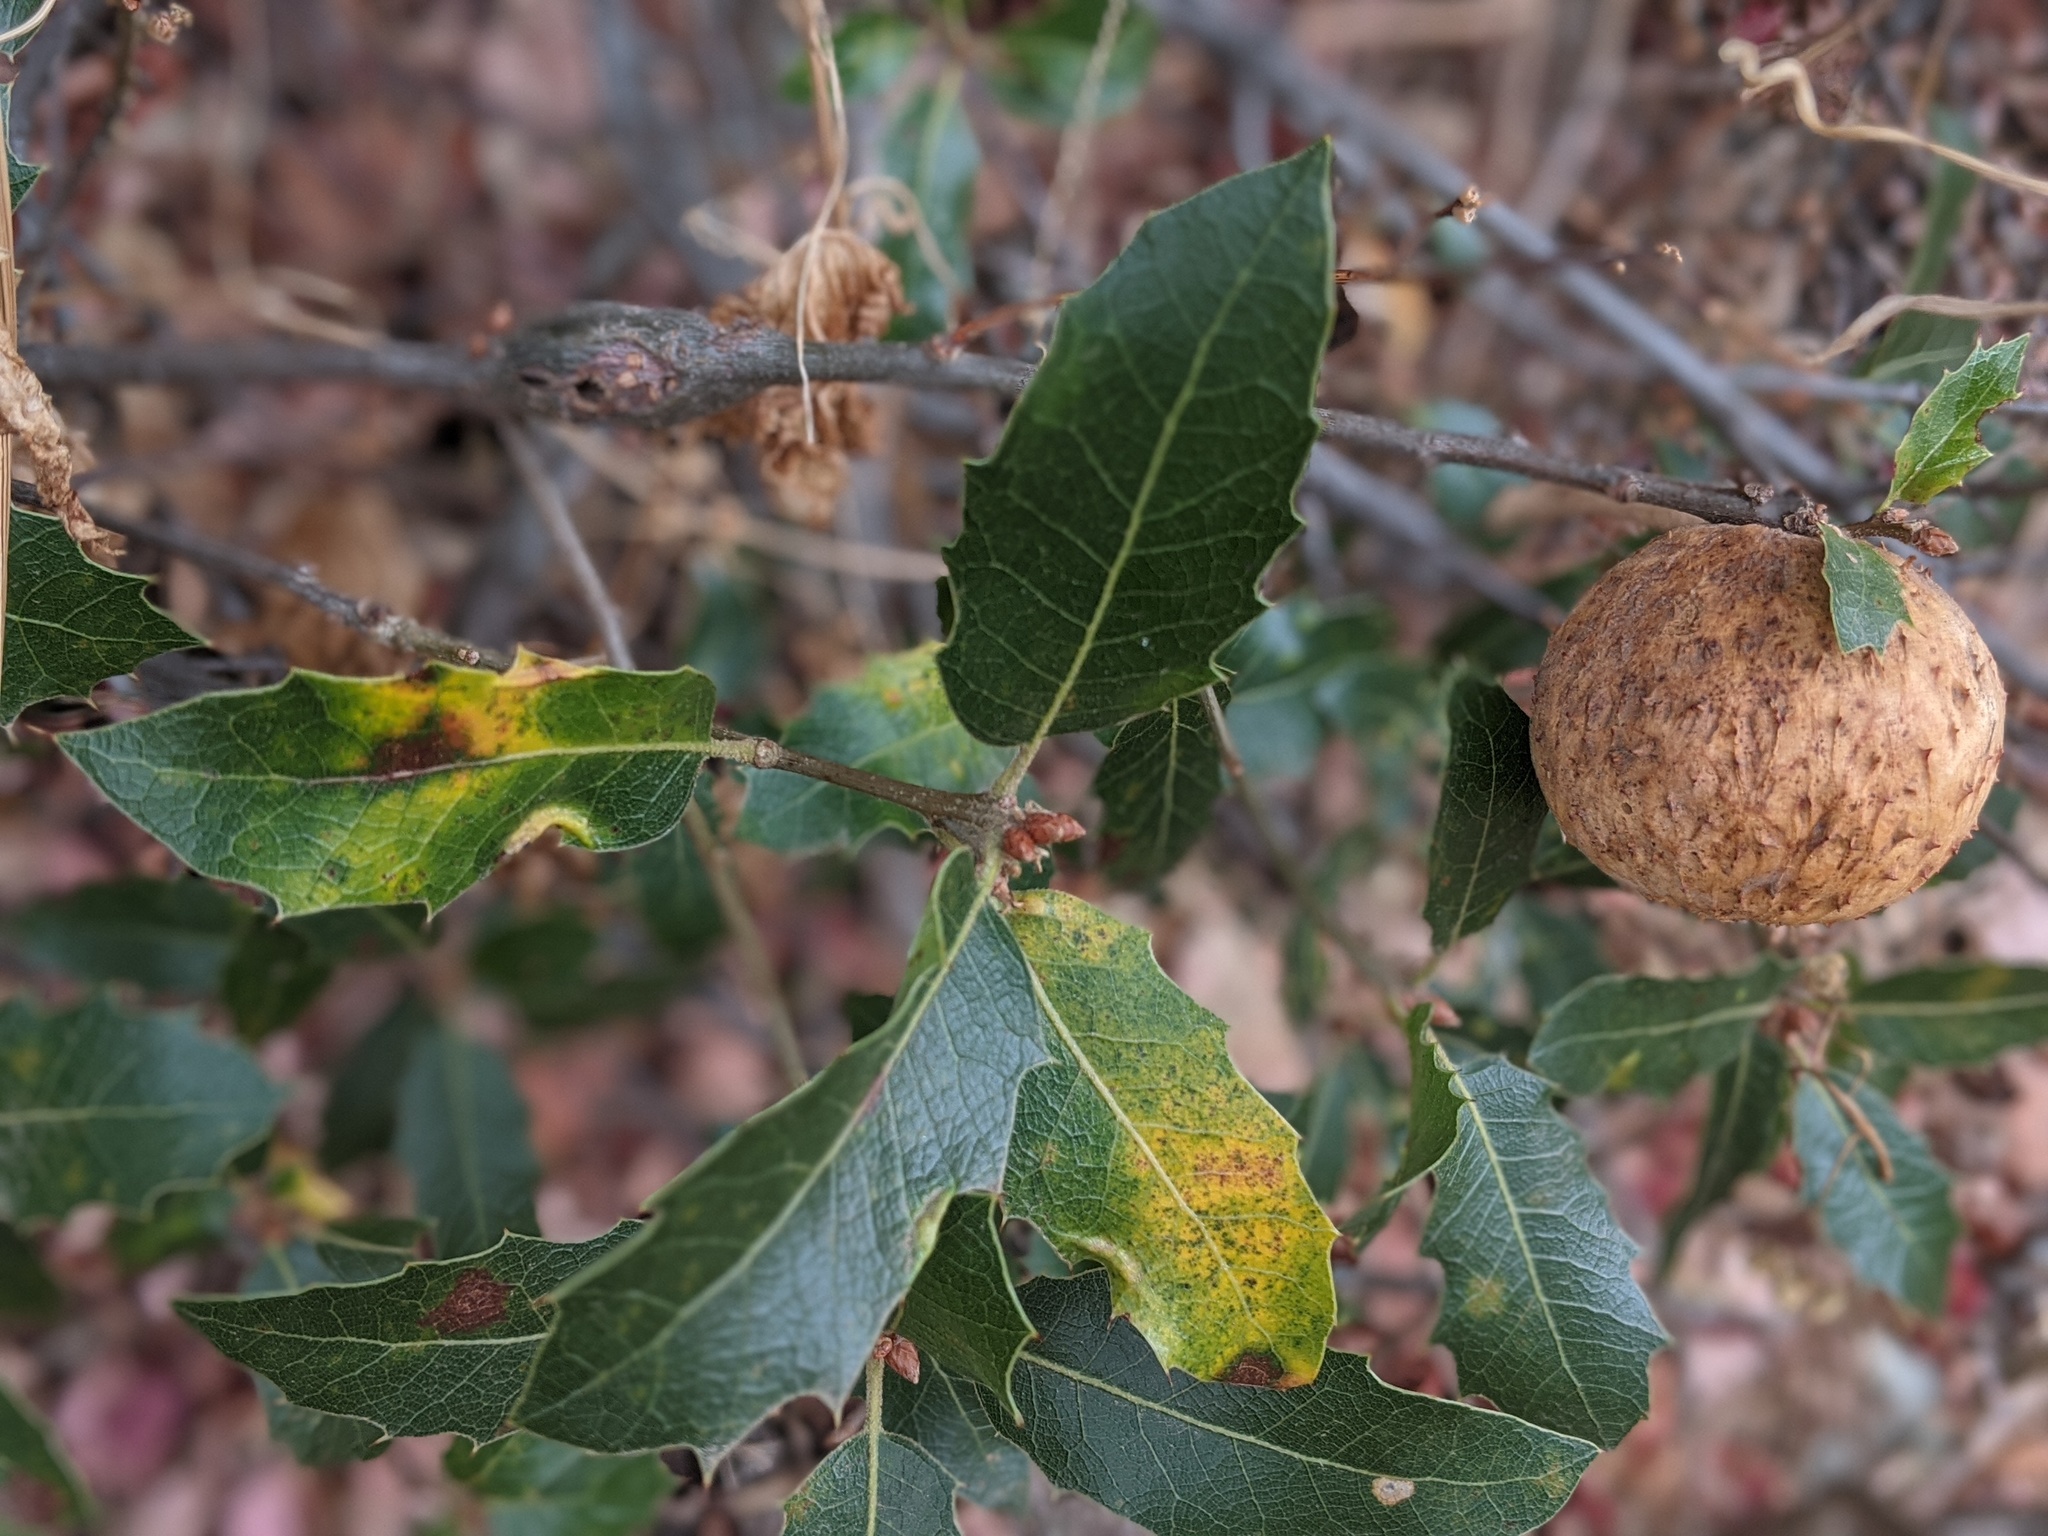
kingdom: Animalia
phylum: Arthropoda
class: Insecta
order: Hymenoptera
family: Cynipidae
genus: Amphibolips
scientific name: Amphibolips quercuspomiformis
